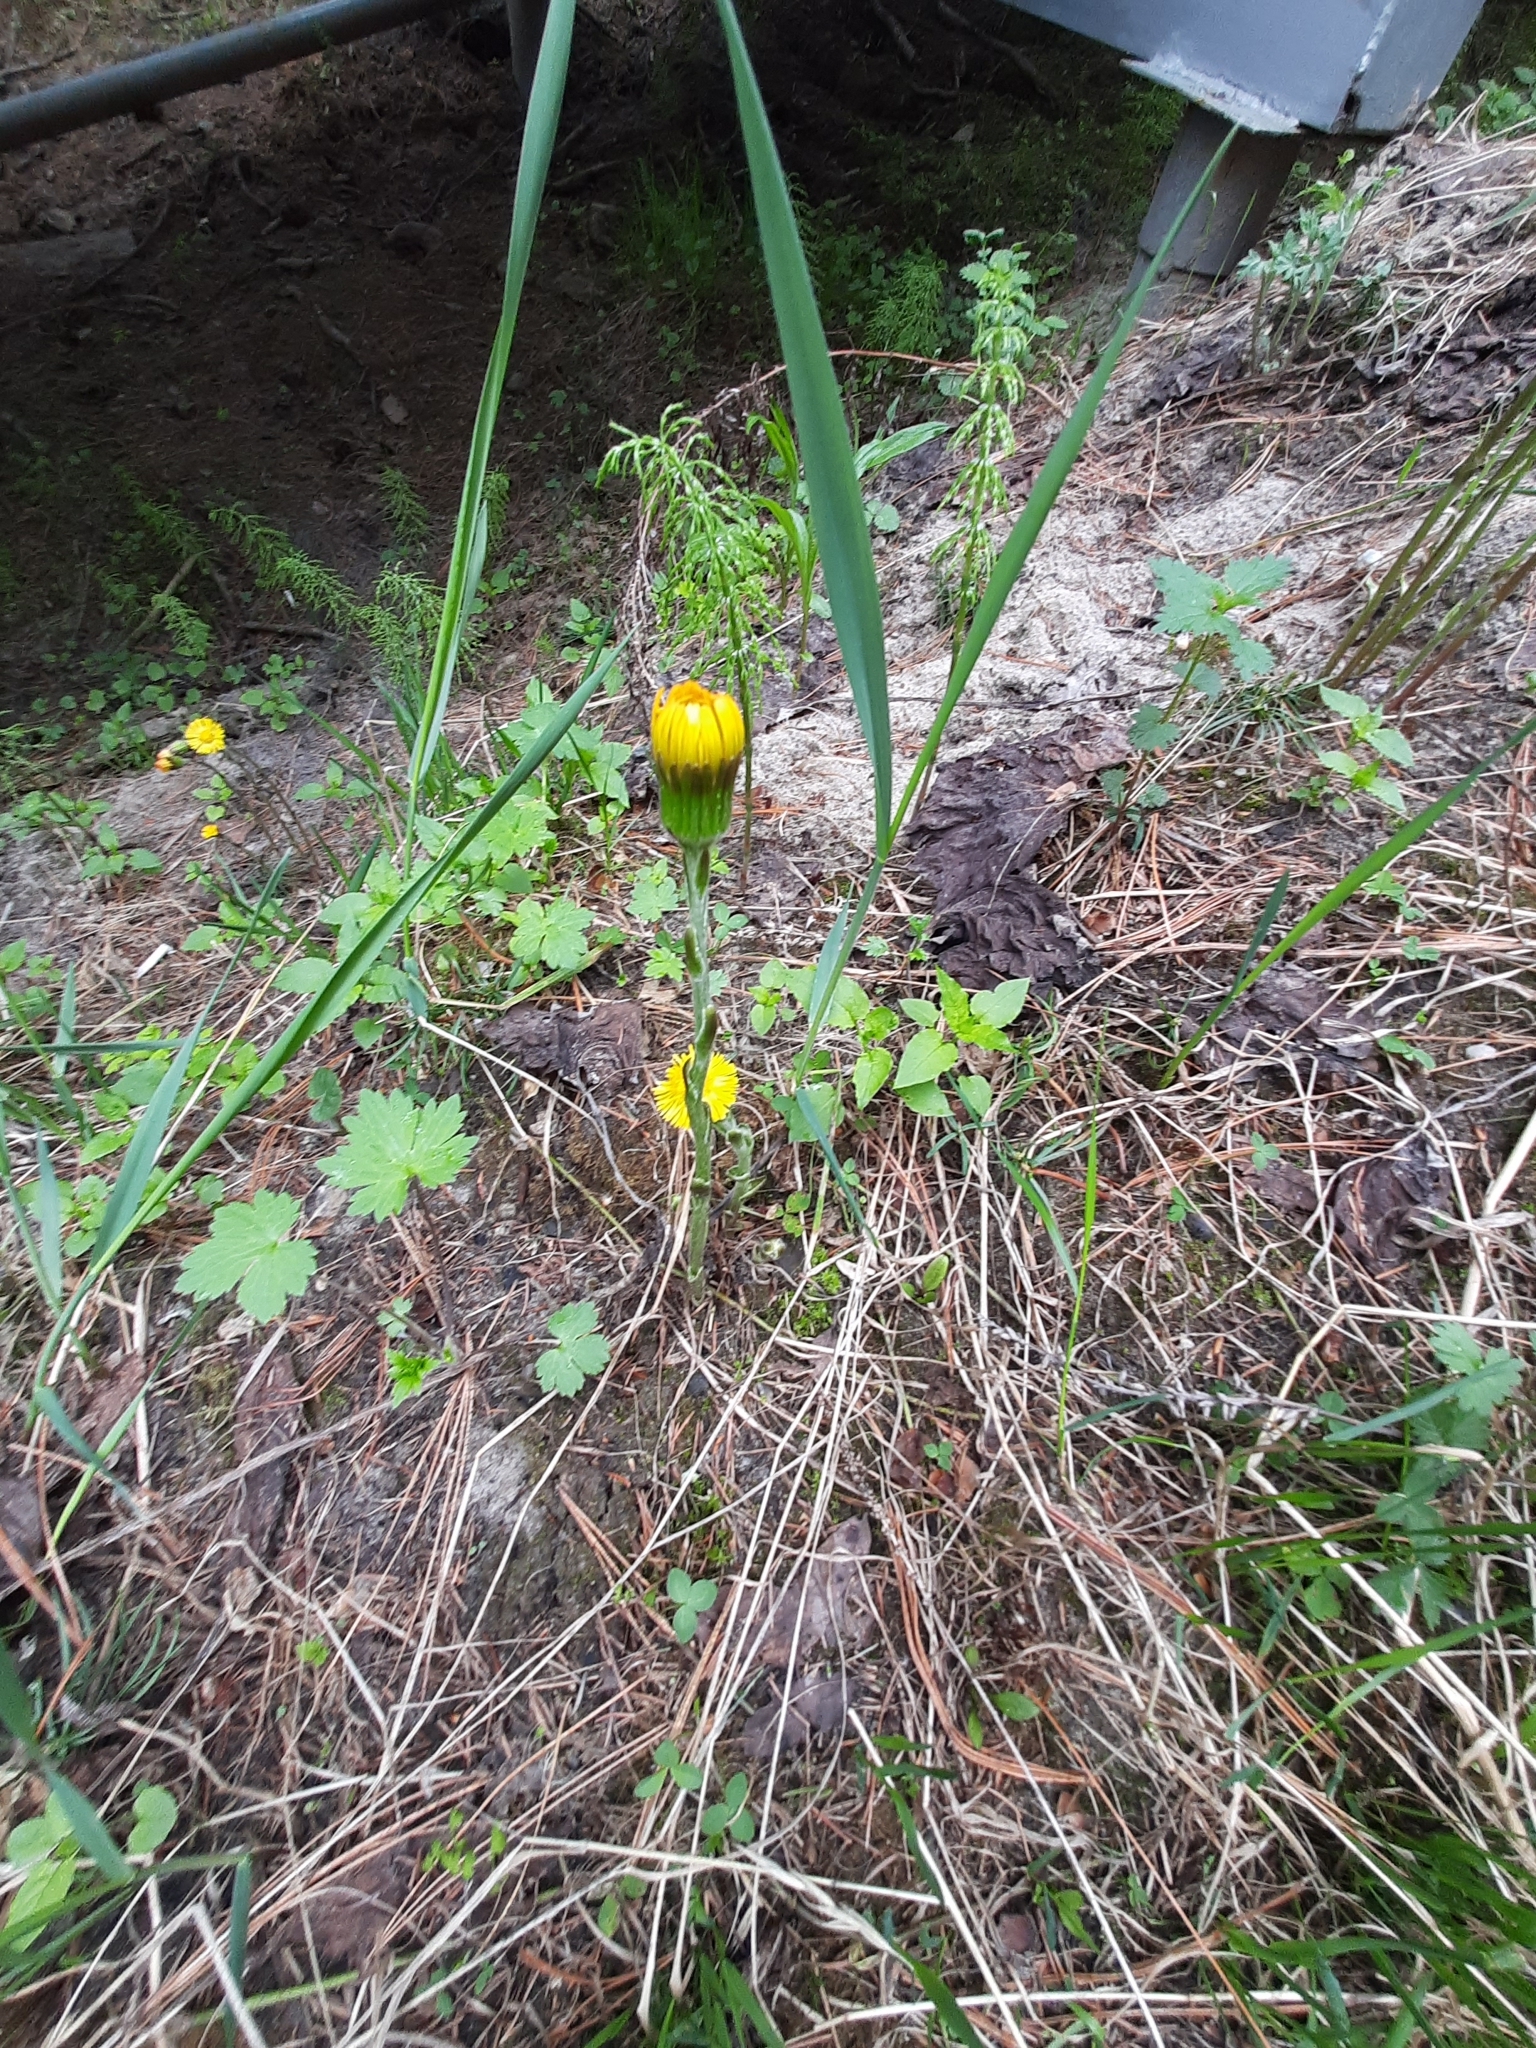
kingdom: Plantae
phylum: Tracheophyta
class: Magnoliopsida
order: Asterales
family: Asteraceae
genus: Tussilago
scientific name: Tussilago farfara
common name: Coltsfoot
